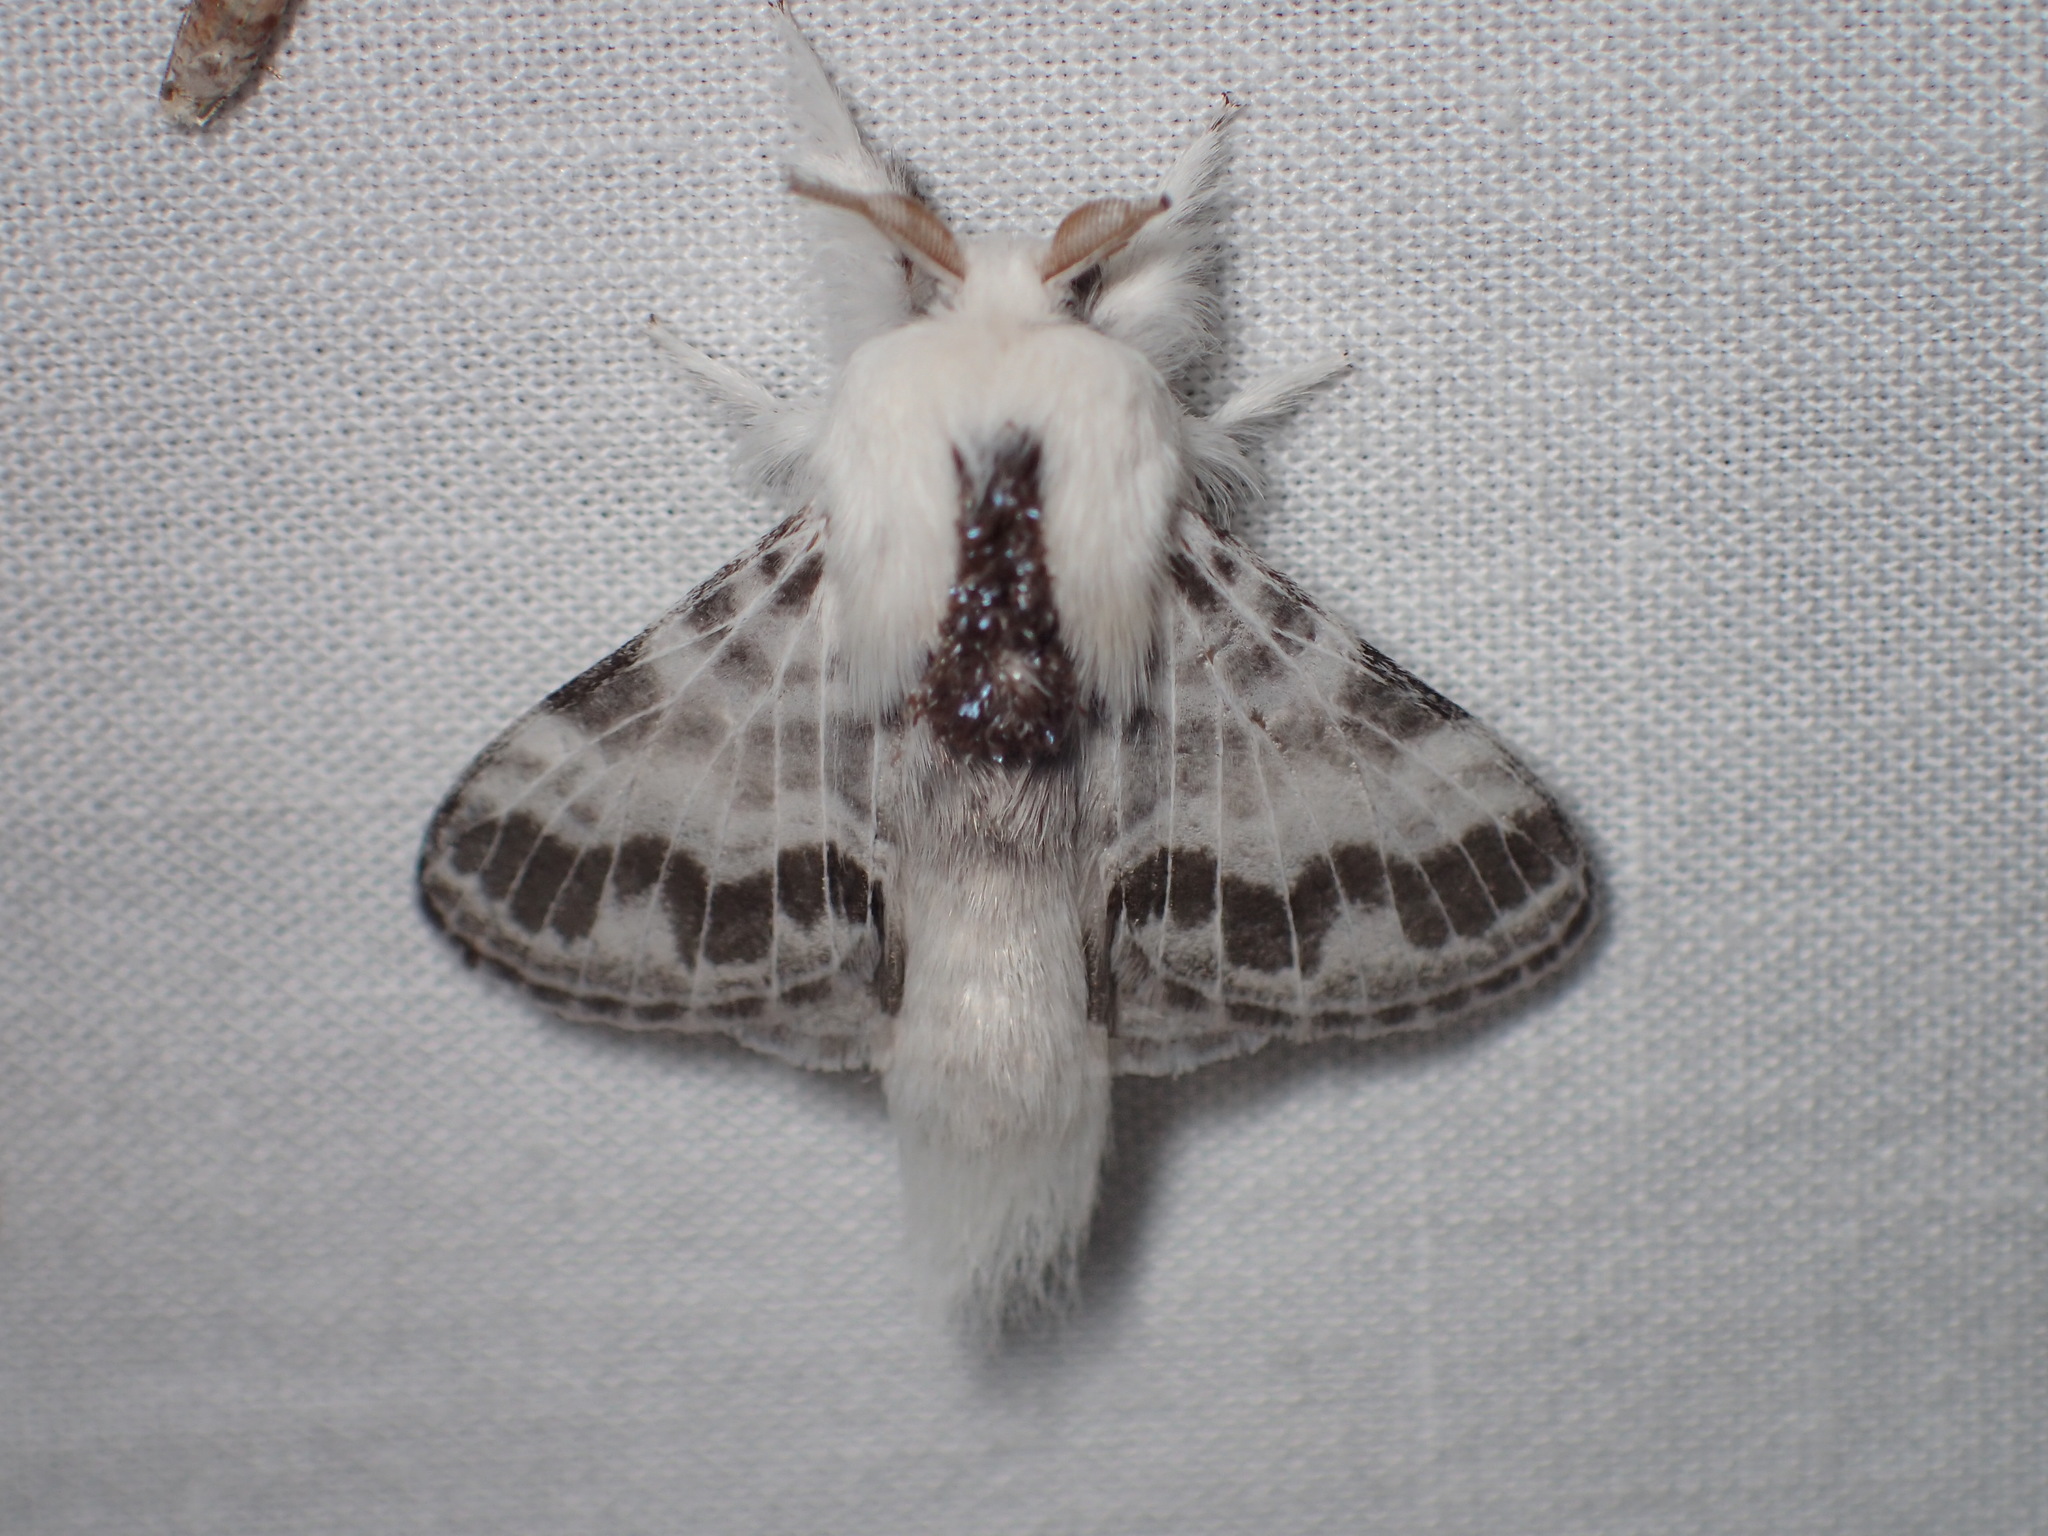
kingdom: Animalia
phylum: Arthropoda
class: Insecta
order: Lepidoptera
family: Lasiocampidae
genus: Tolype
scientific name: Tolype notialis
